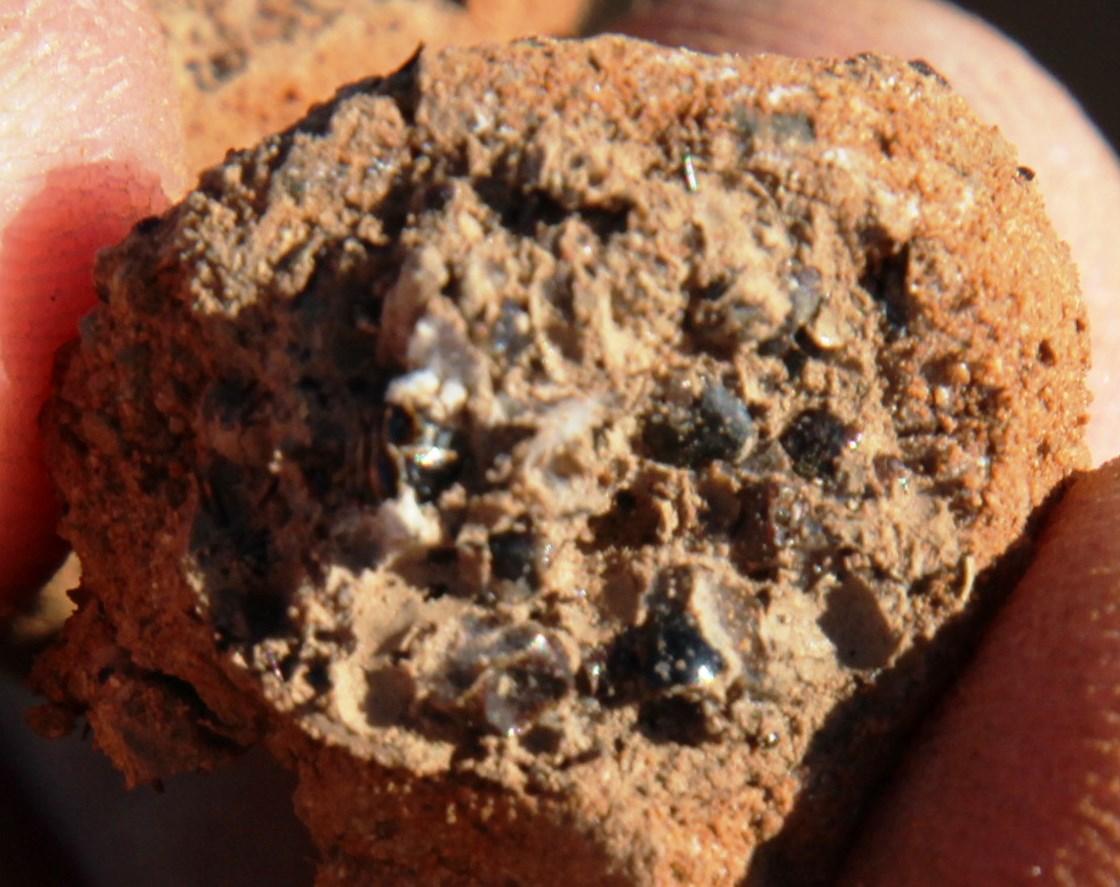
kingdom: Animalia
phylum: Chordata
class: Mammalia
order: Tubulidentata
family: Orycteropodidae
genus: Orycteropus
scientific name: Orycteropus afer
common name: Aardvark
